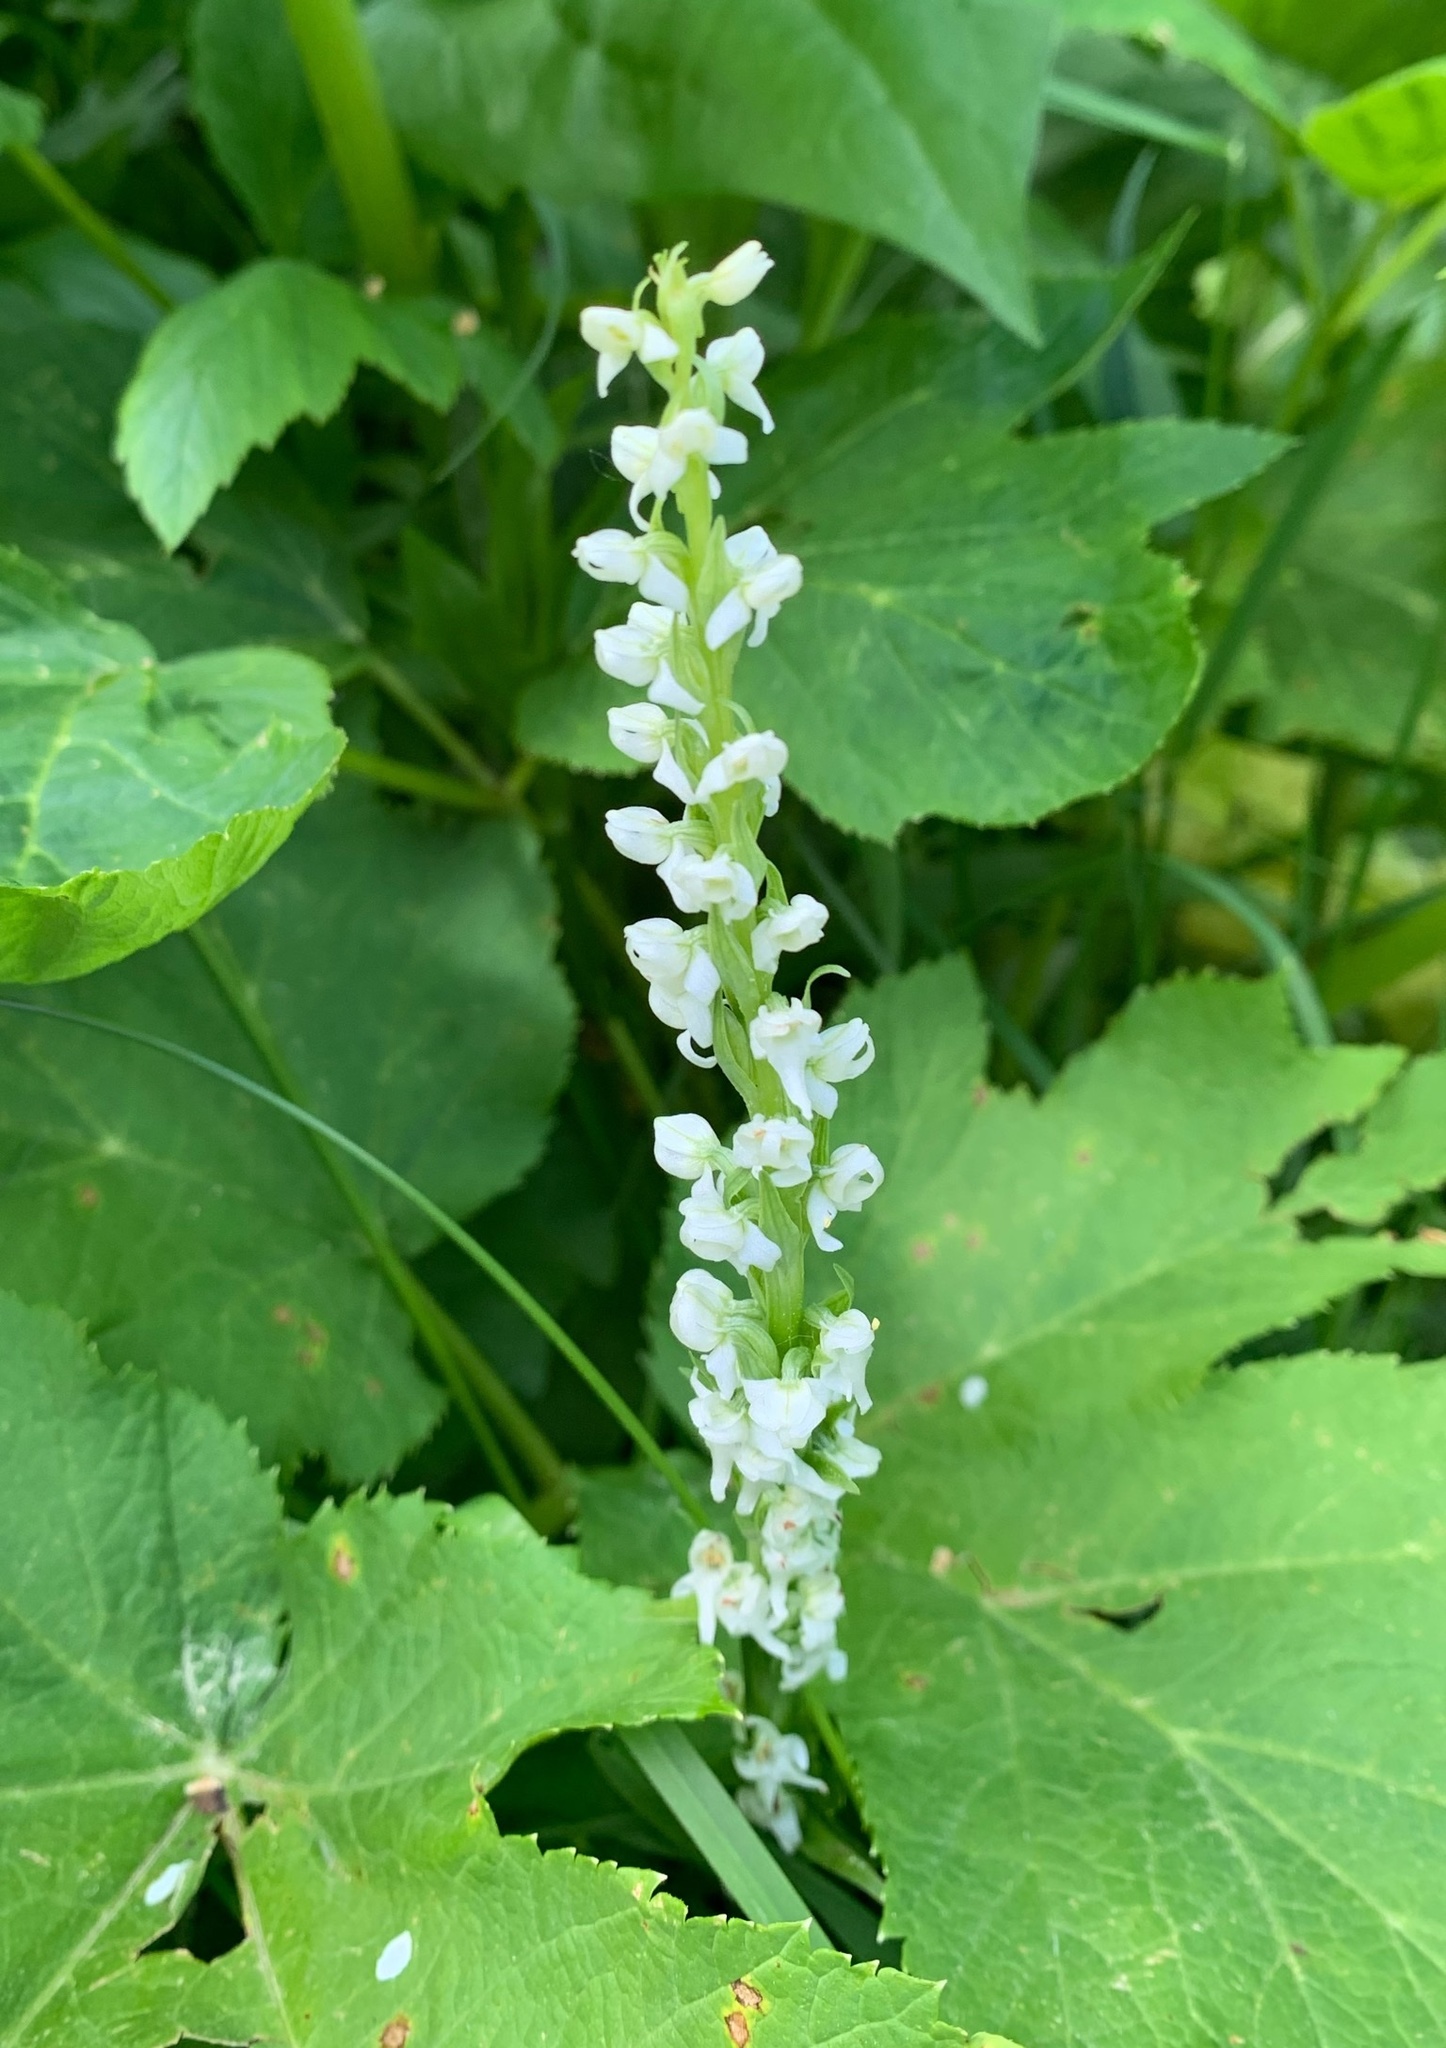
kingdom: Plantae
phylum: Tracheophyta
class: Liliopsida
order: Asparagales
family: Orchidaceae
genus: Platanthera
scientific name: Platanthera dilatata
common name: Bog candles
